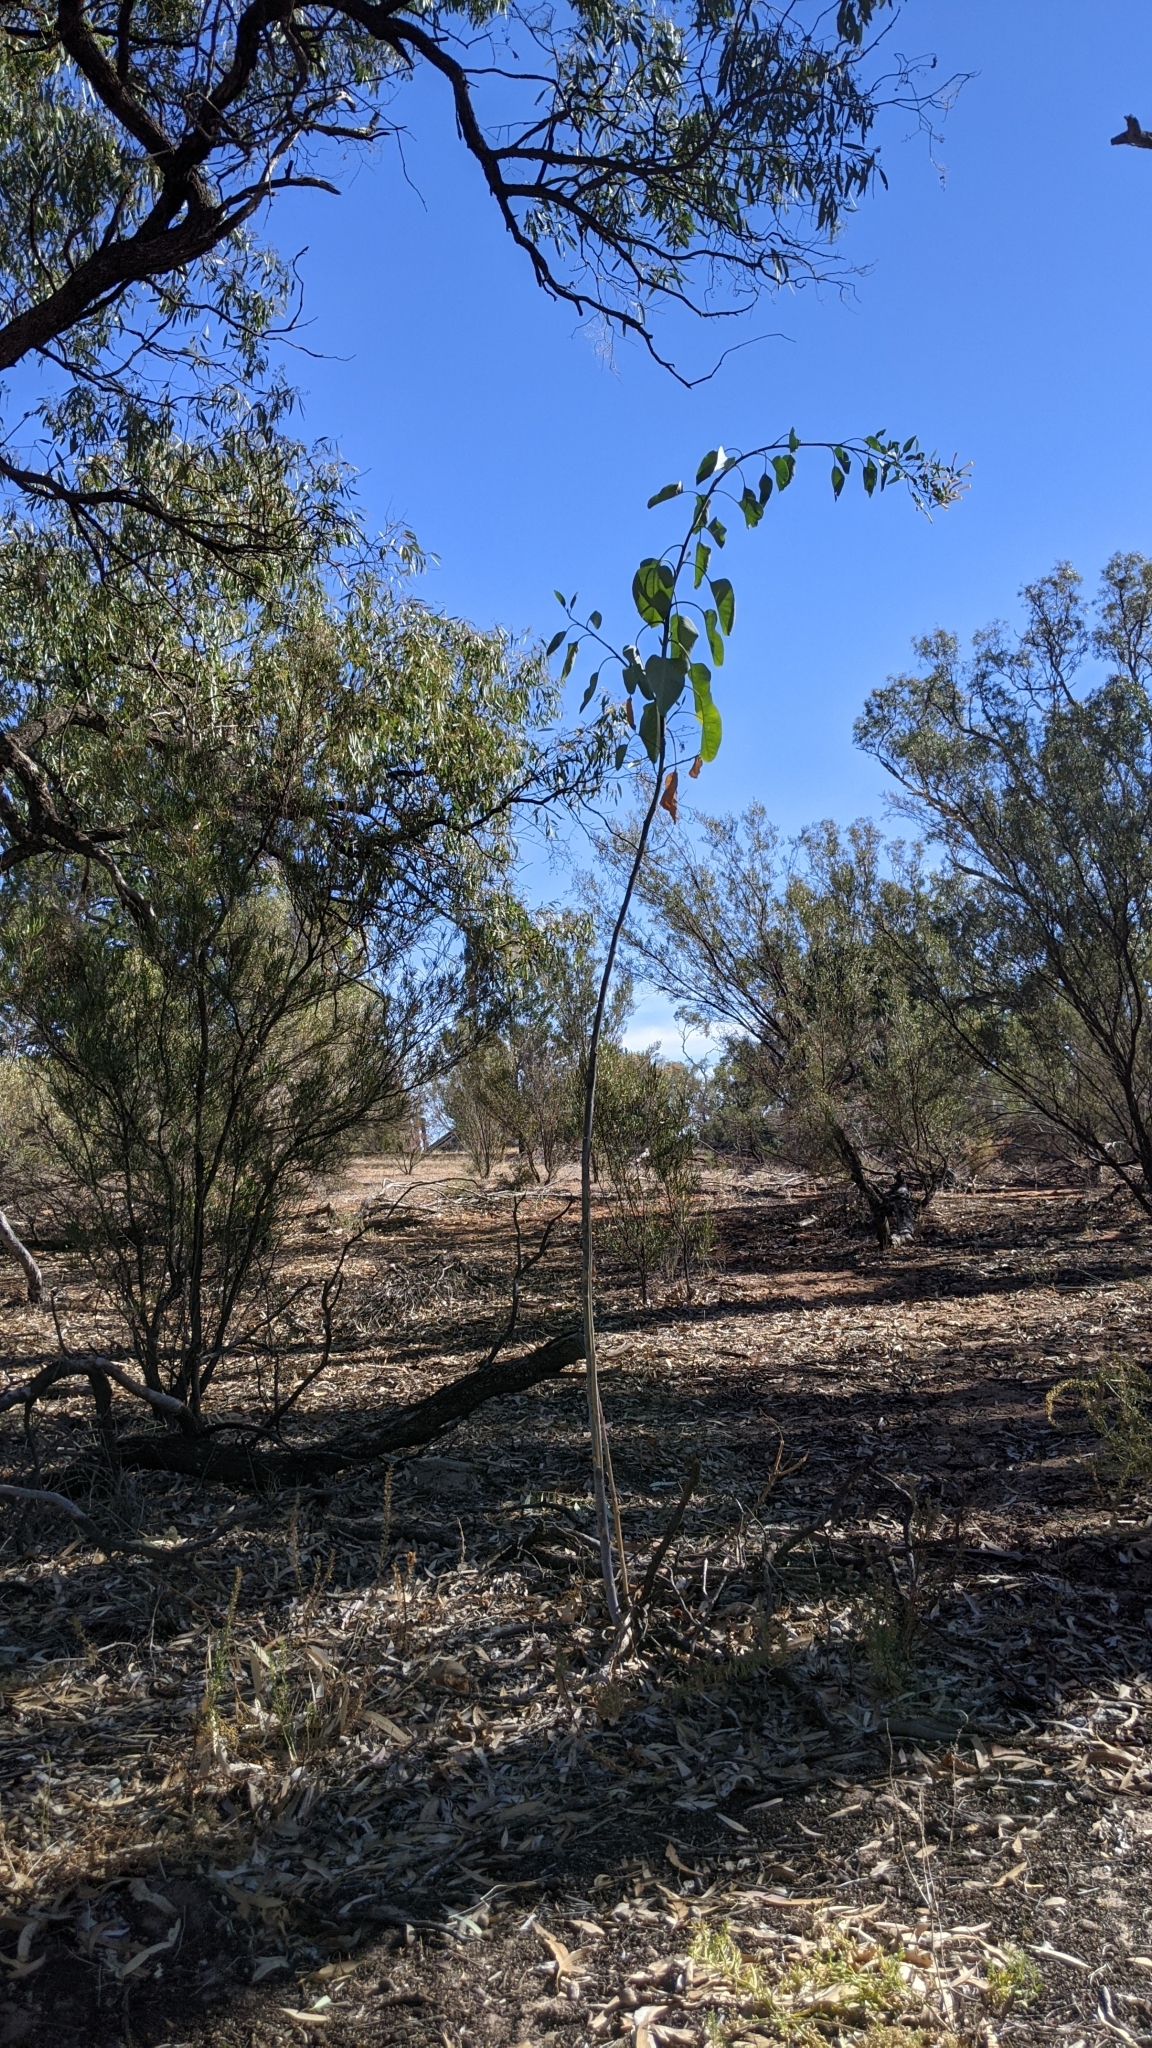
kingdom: Plantae
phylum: Tracheophyta
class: Magnoliopsida
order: Solanales
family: Solanaceae
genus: Nicotiana
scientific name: Nicotiana glauca
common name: Tree tobacco
